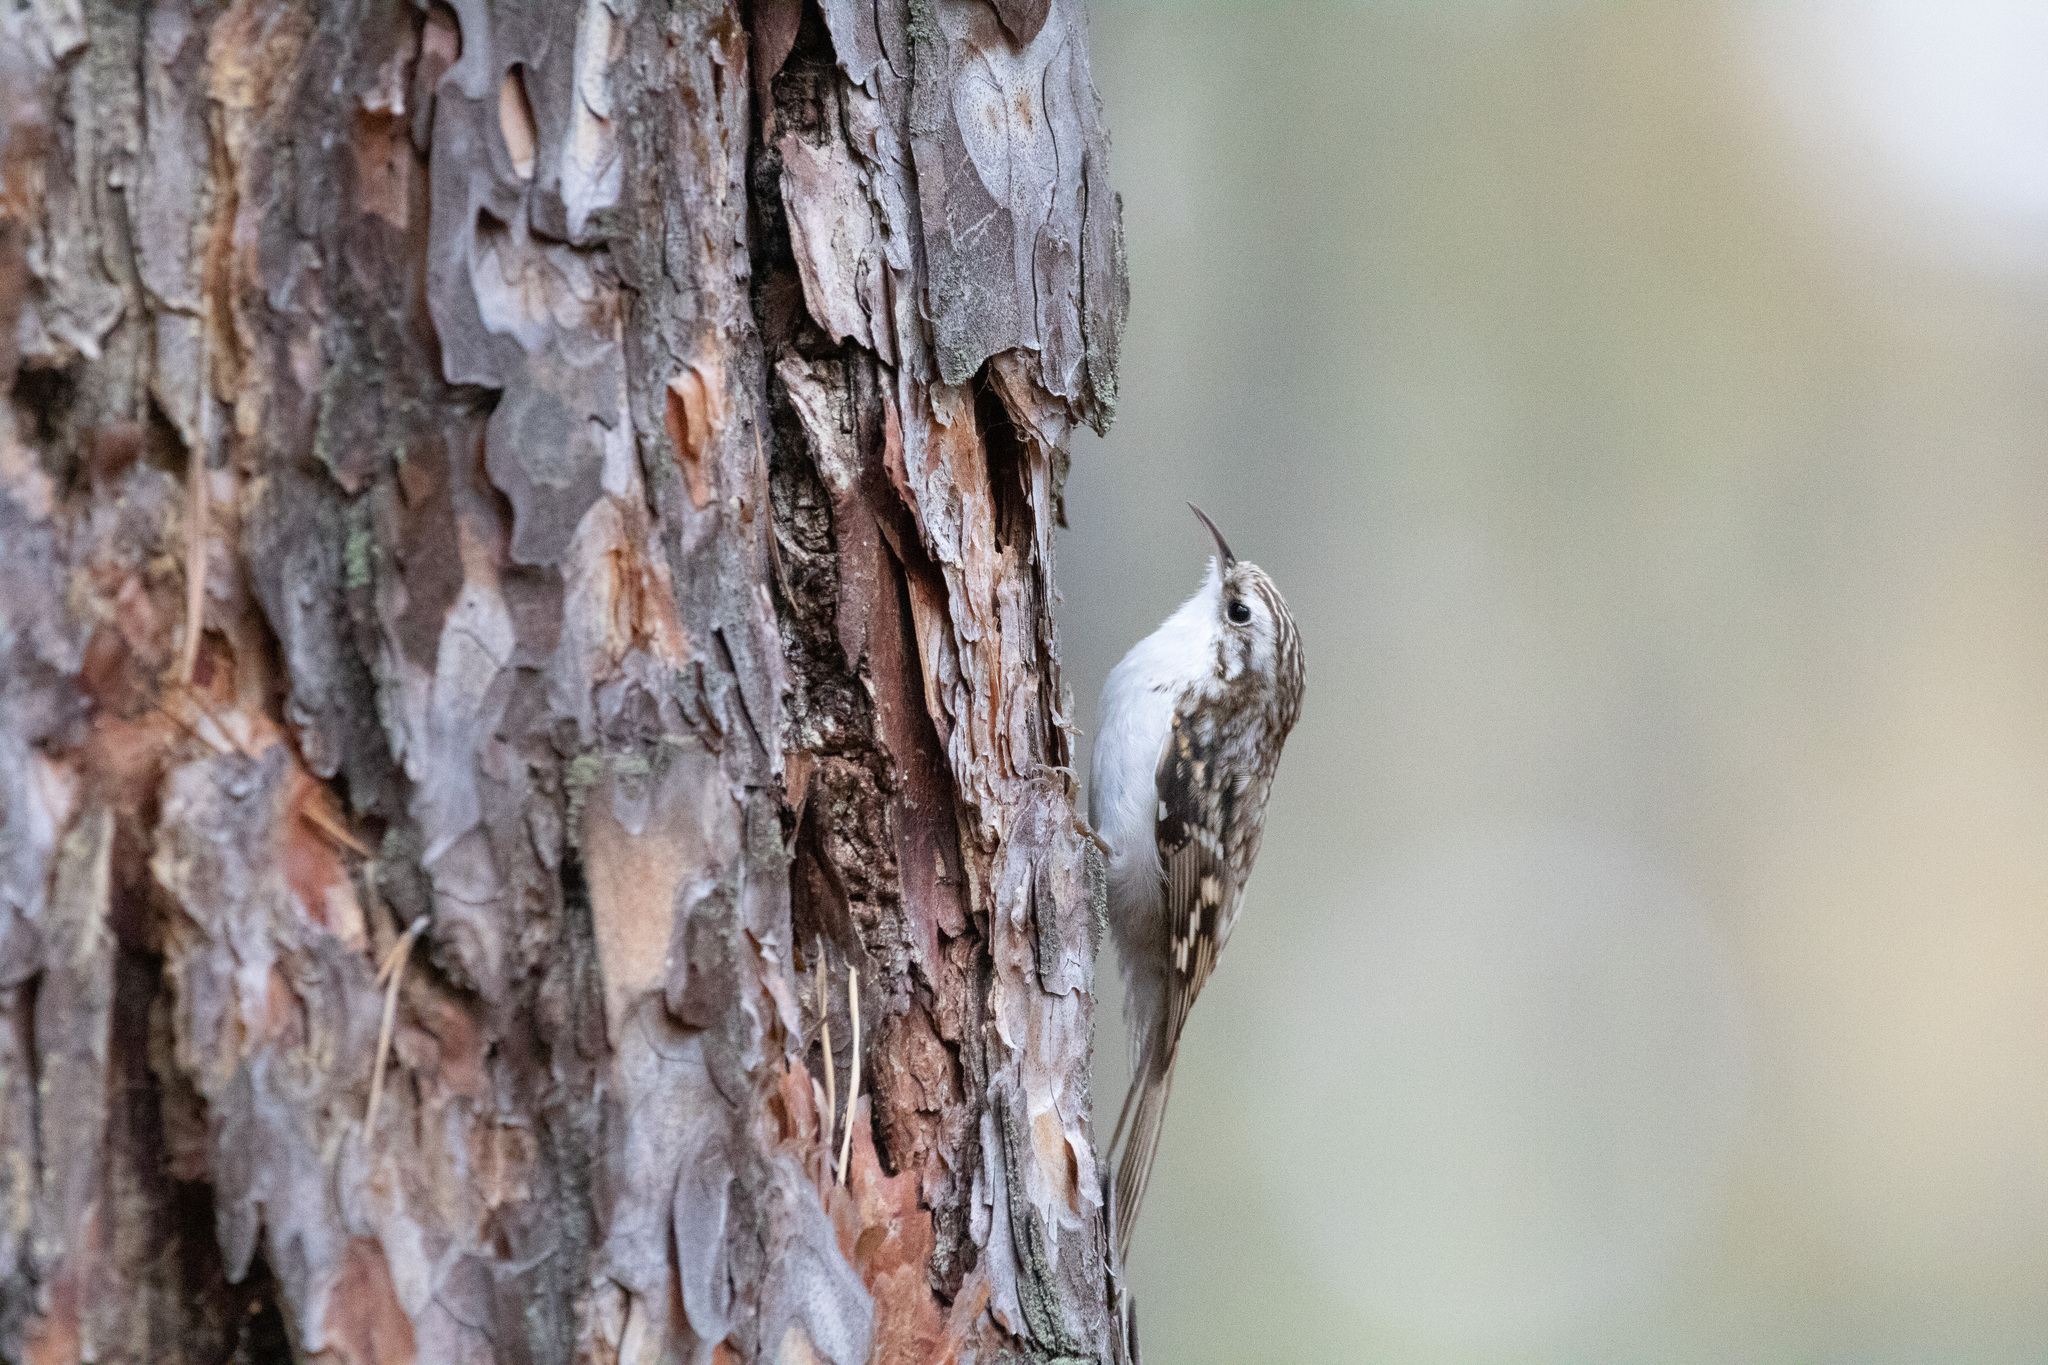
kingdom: Animalia
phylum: Chordata
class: Aves
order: Passeriformes
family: Certhiidae
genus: Certhia
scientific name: Certhia familiaris
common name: Eurasian treecreeper
